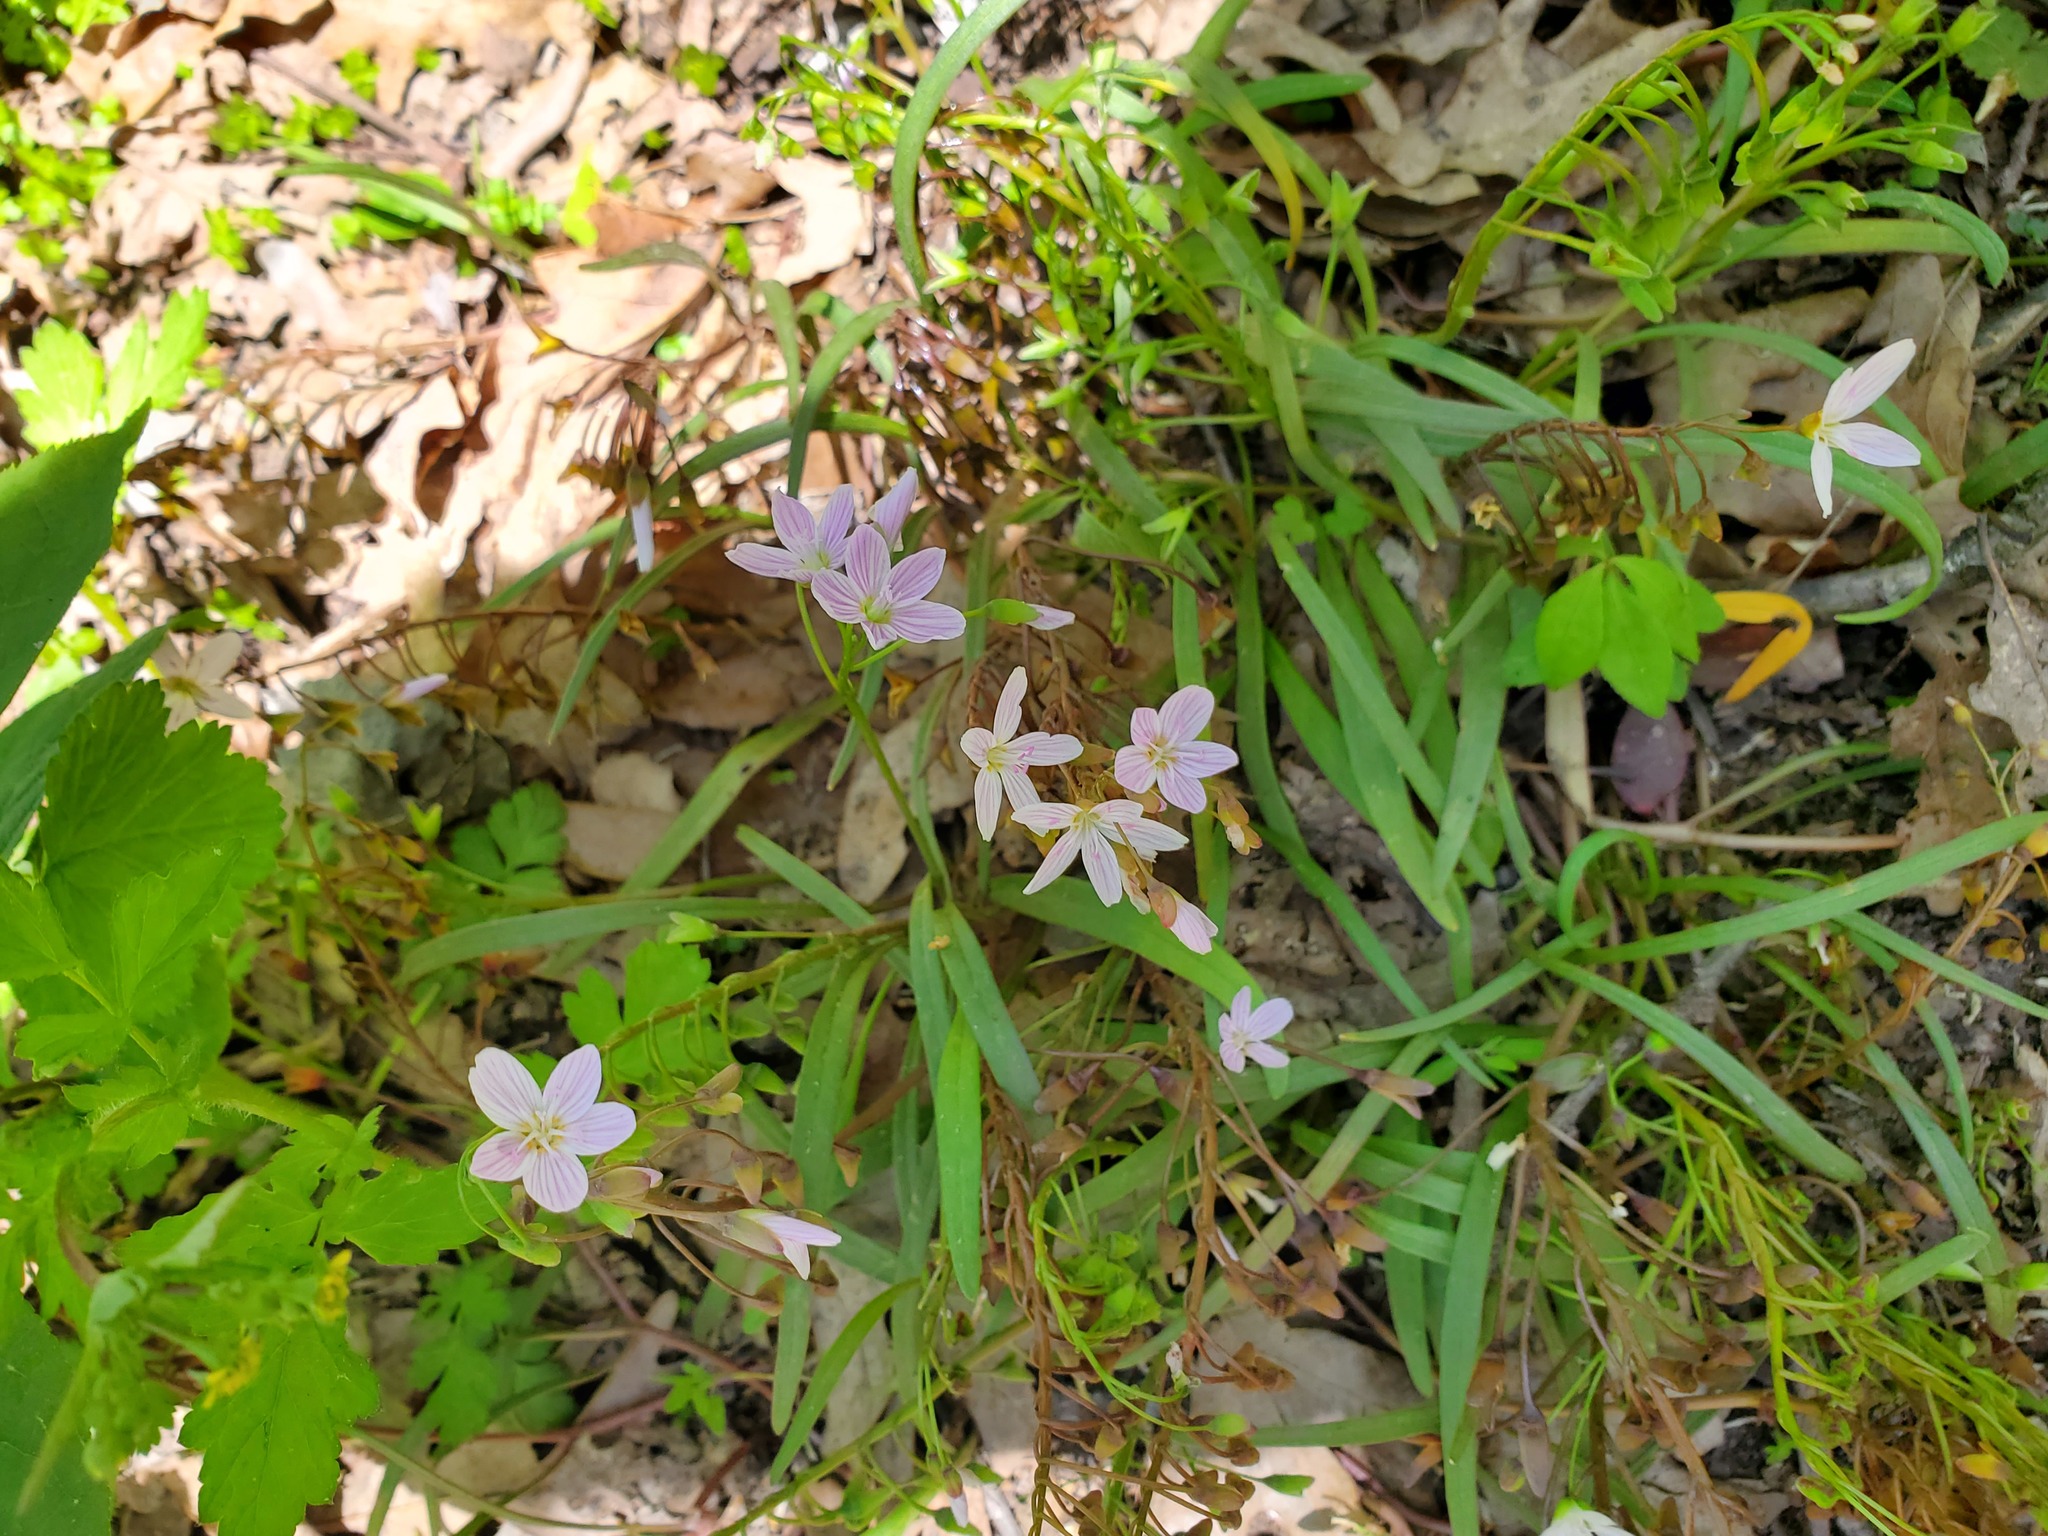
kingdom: Plantae
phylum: Tracheophyta
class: Magnoliopsida
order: Caryophyllales
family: Montiaceae
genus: Claytonia
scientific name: Claytonia virginica
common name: Virginia springbeauty
